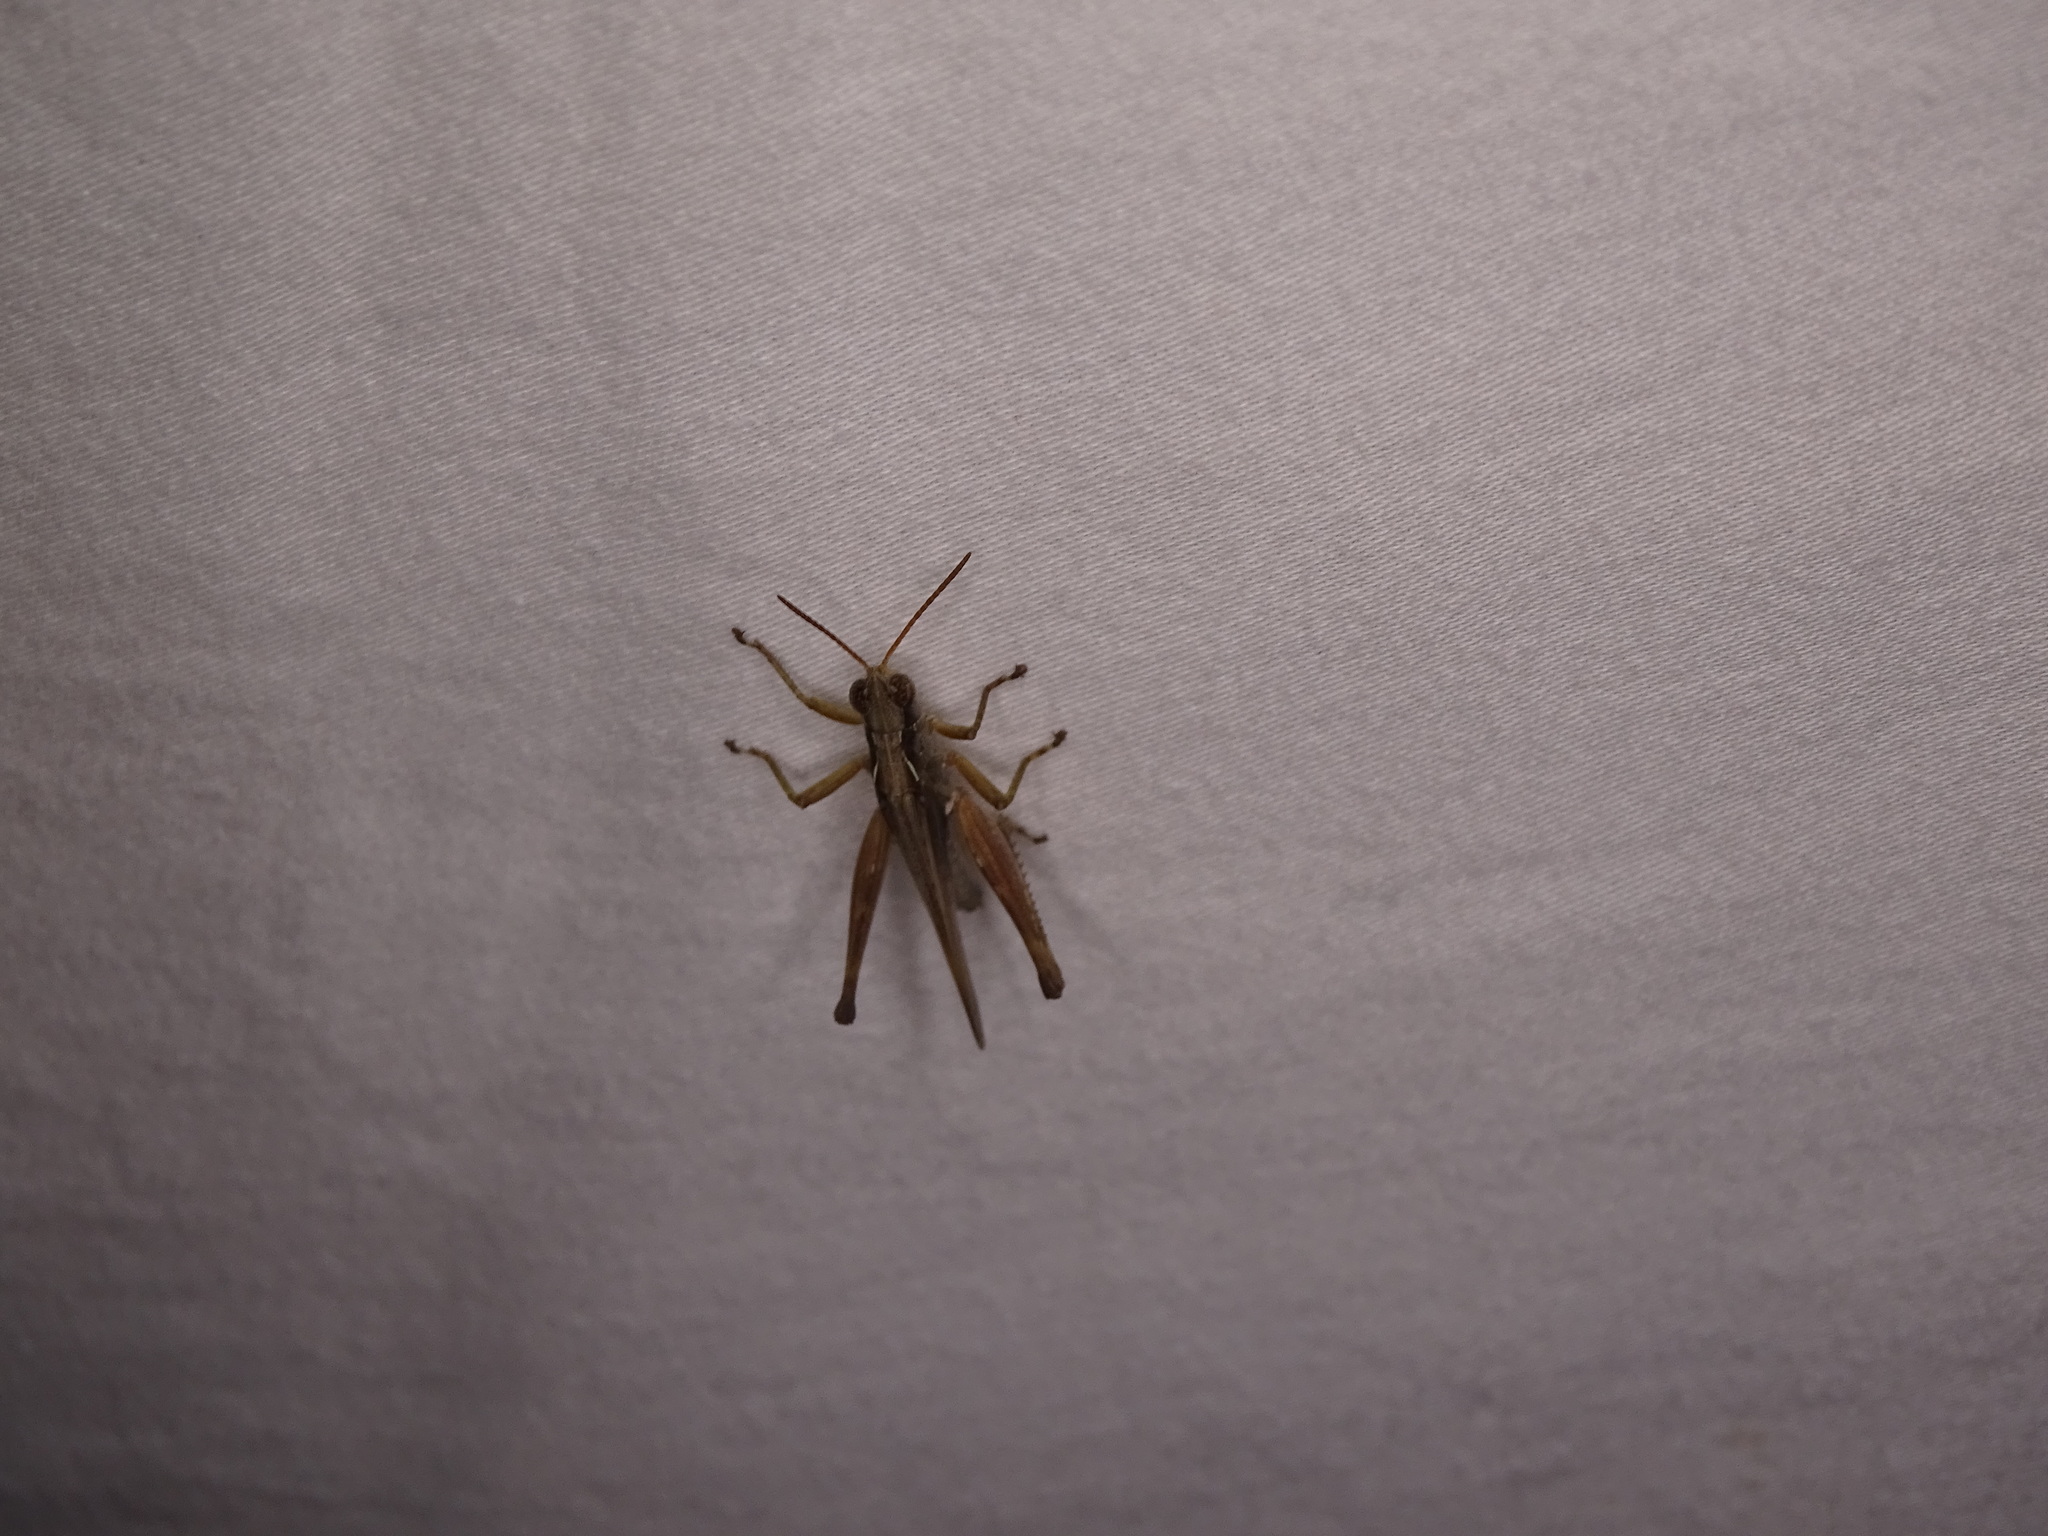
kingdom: Animalia
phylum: Arthropoda
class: Insecta
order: Orthoptera
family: Acrididae
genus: Orphulella
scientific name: Orphulella pelidna
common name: Spotted-wing grasshopper
